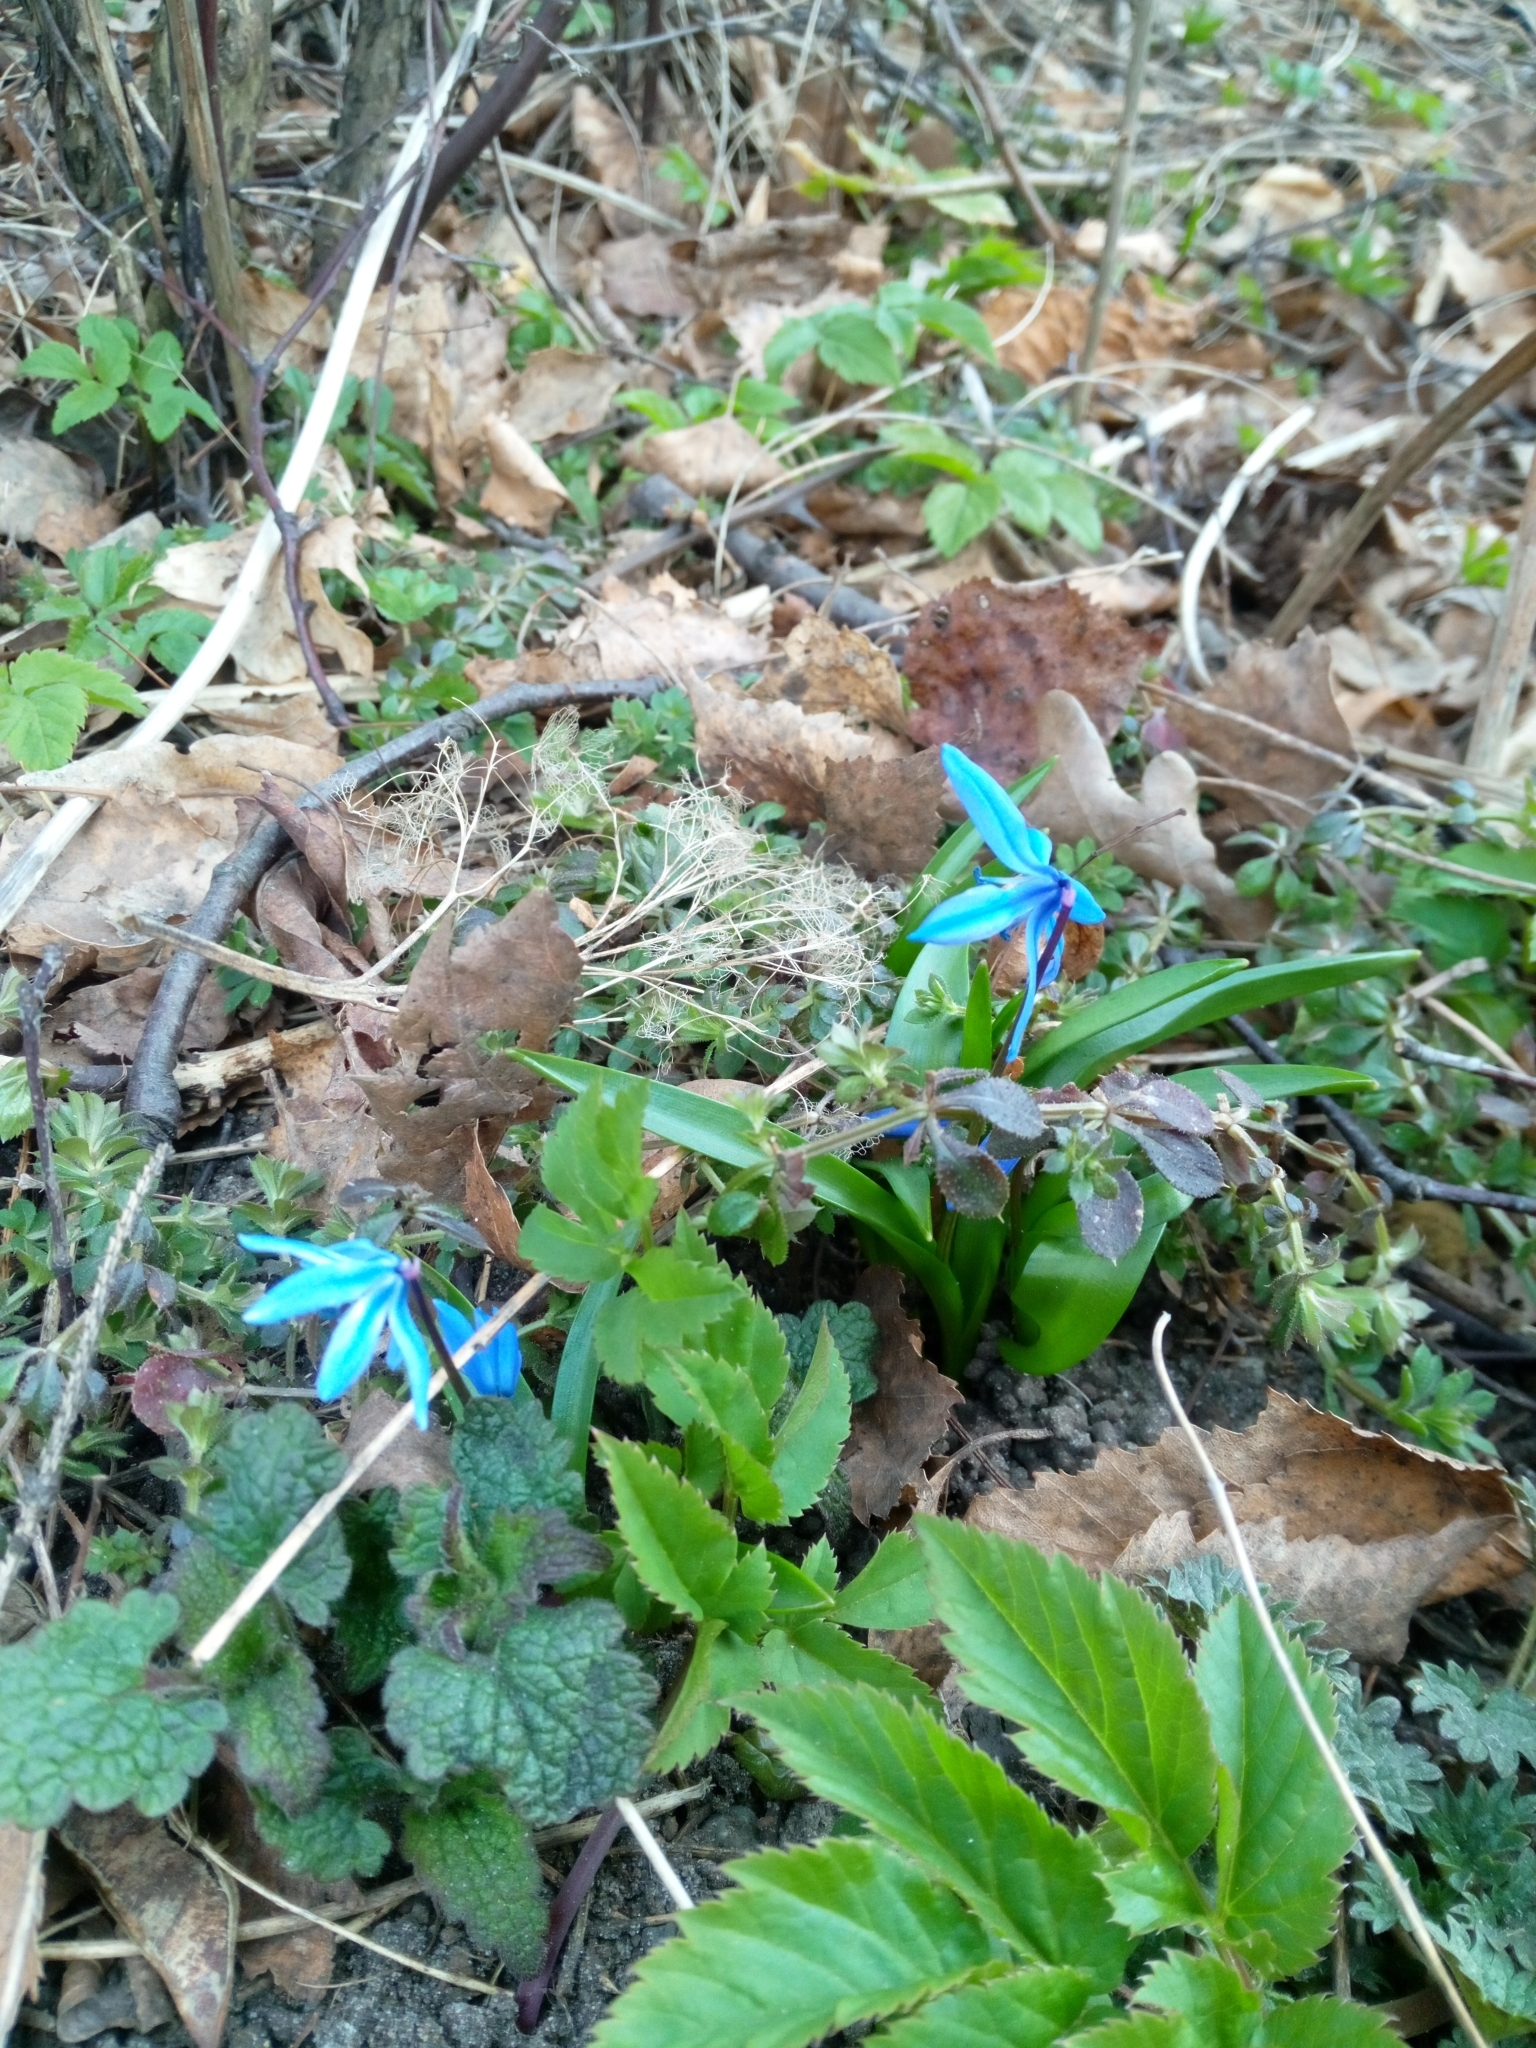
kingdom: Plantae
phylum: Tracheophyta
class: Liliopsida
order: Asparagales
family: Asparagaceae
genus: Scilla
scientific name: Scilla siberica
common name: Siberian squill
